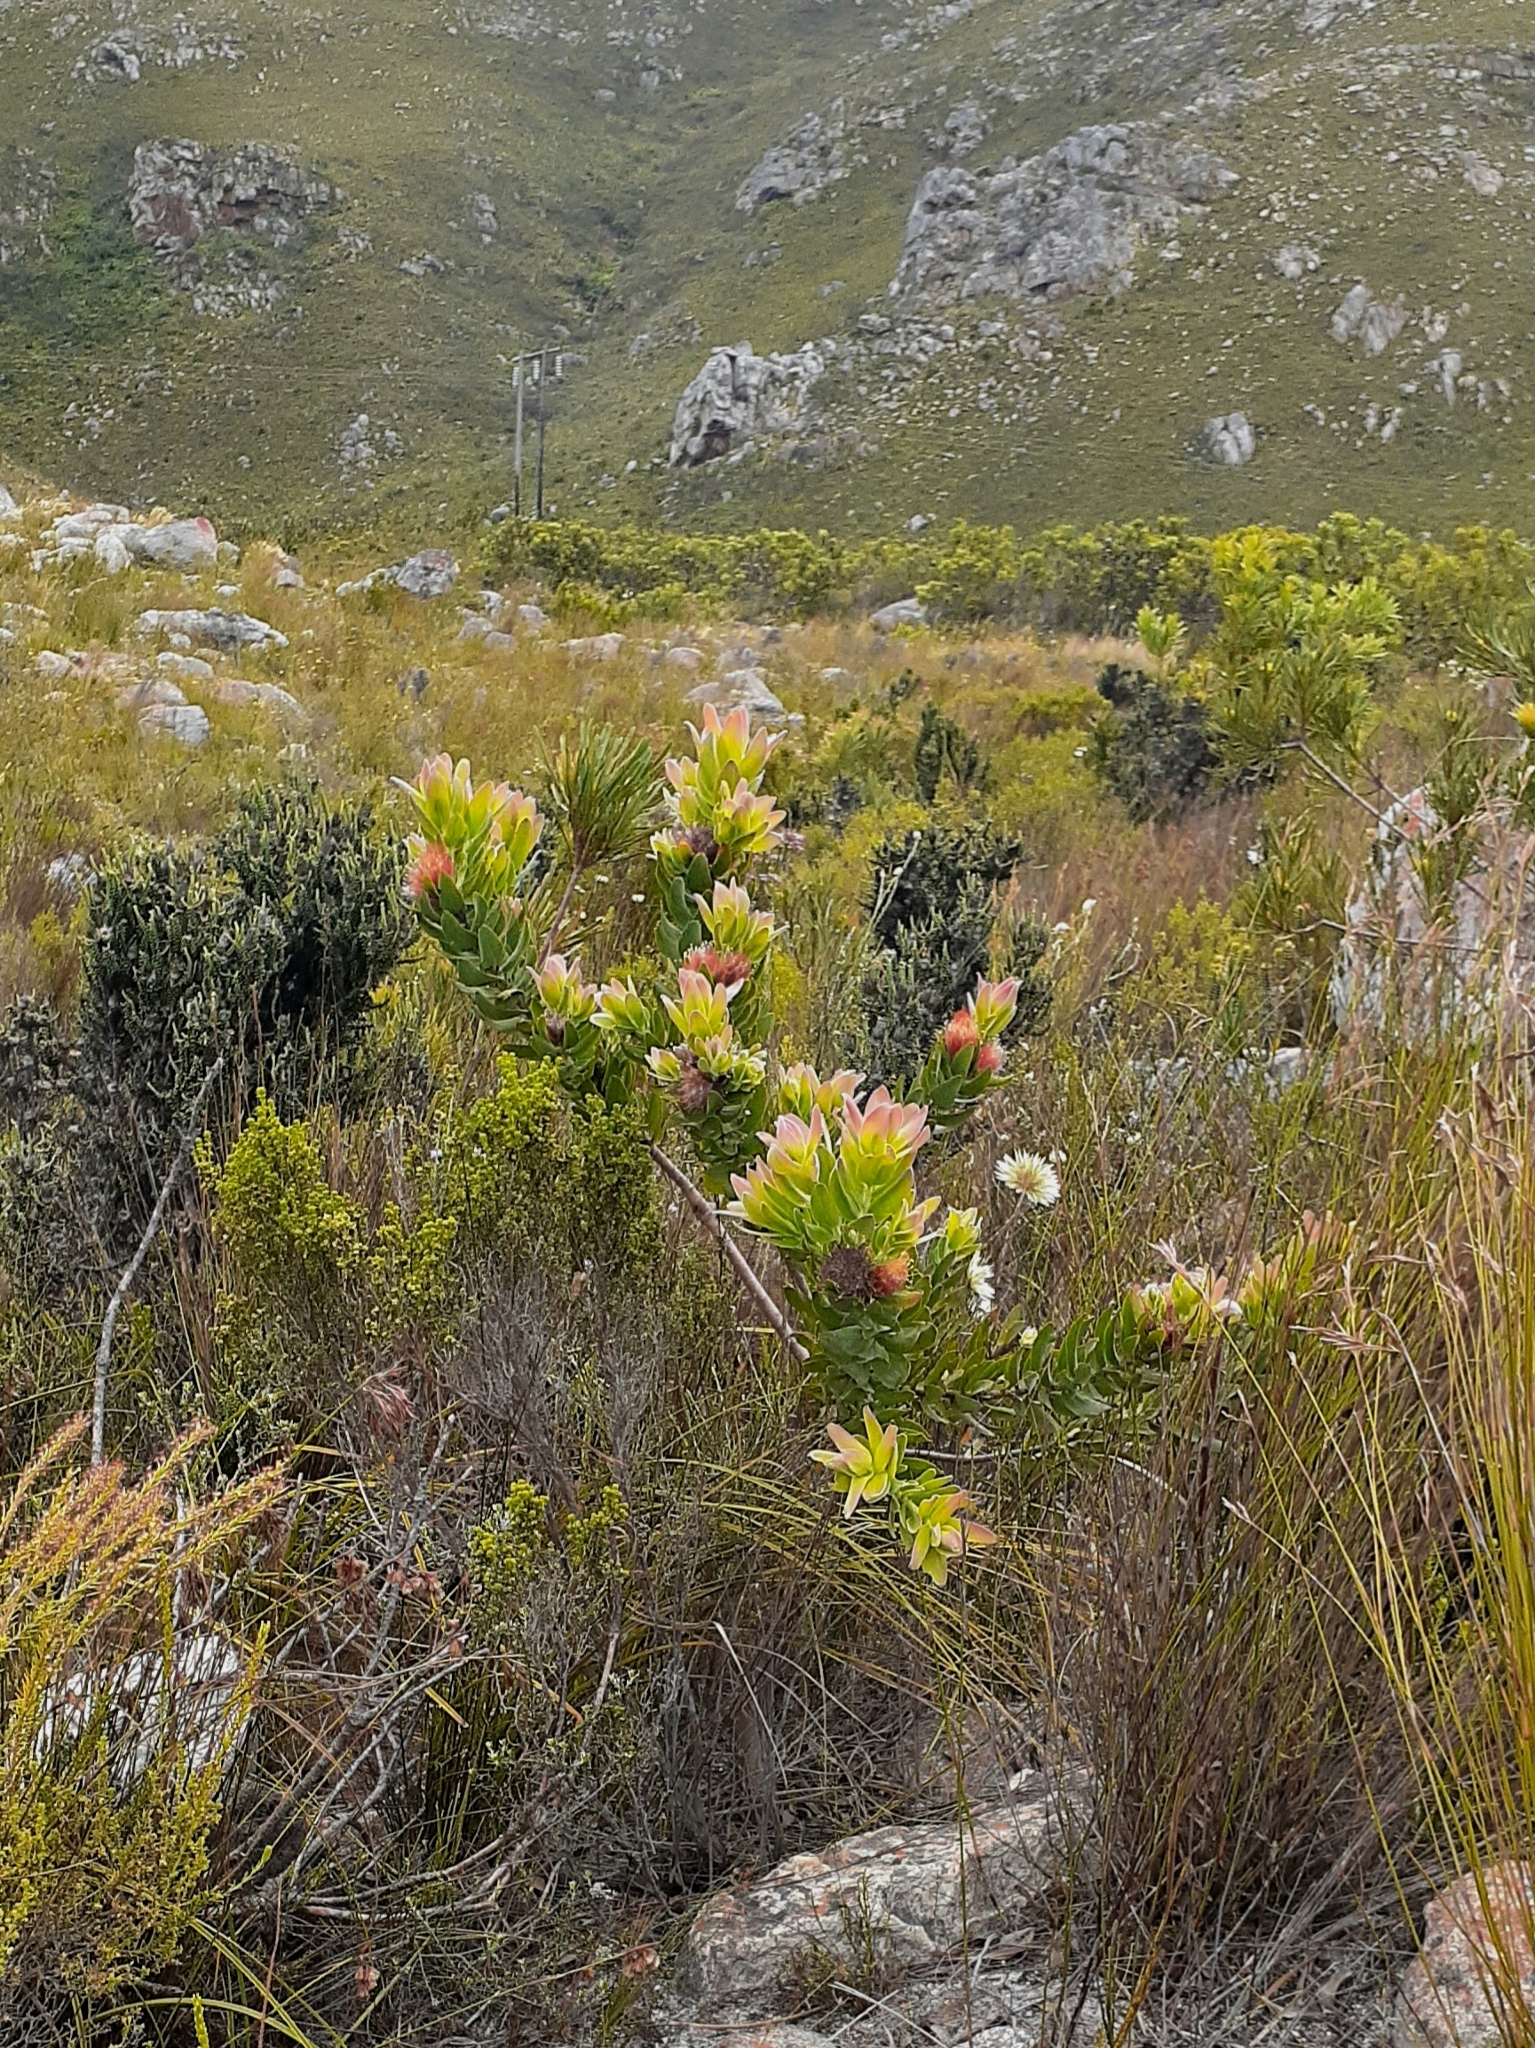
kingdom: Plantae
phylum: Tracheophyta
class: Magnoliopsida
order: Proteales
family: Proteaceae
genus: Leucospermum
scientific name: Leucospermum oleifolium
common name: Matches
